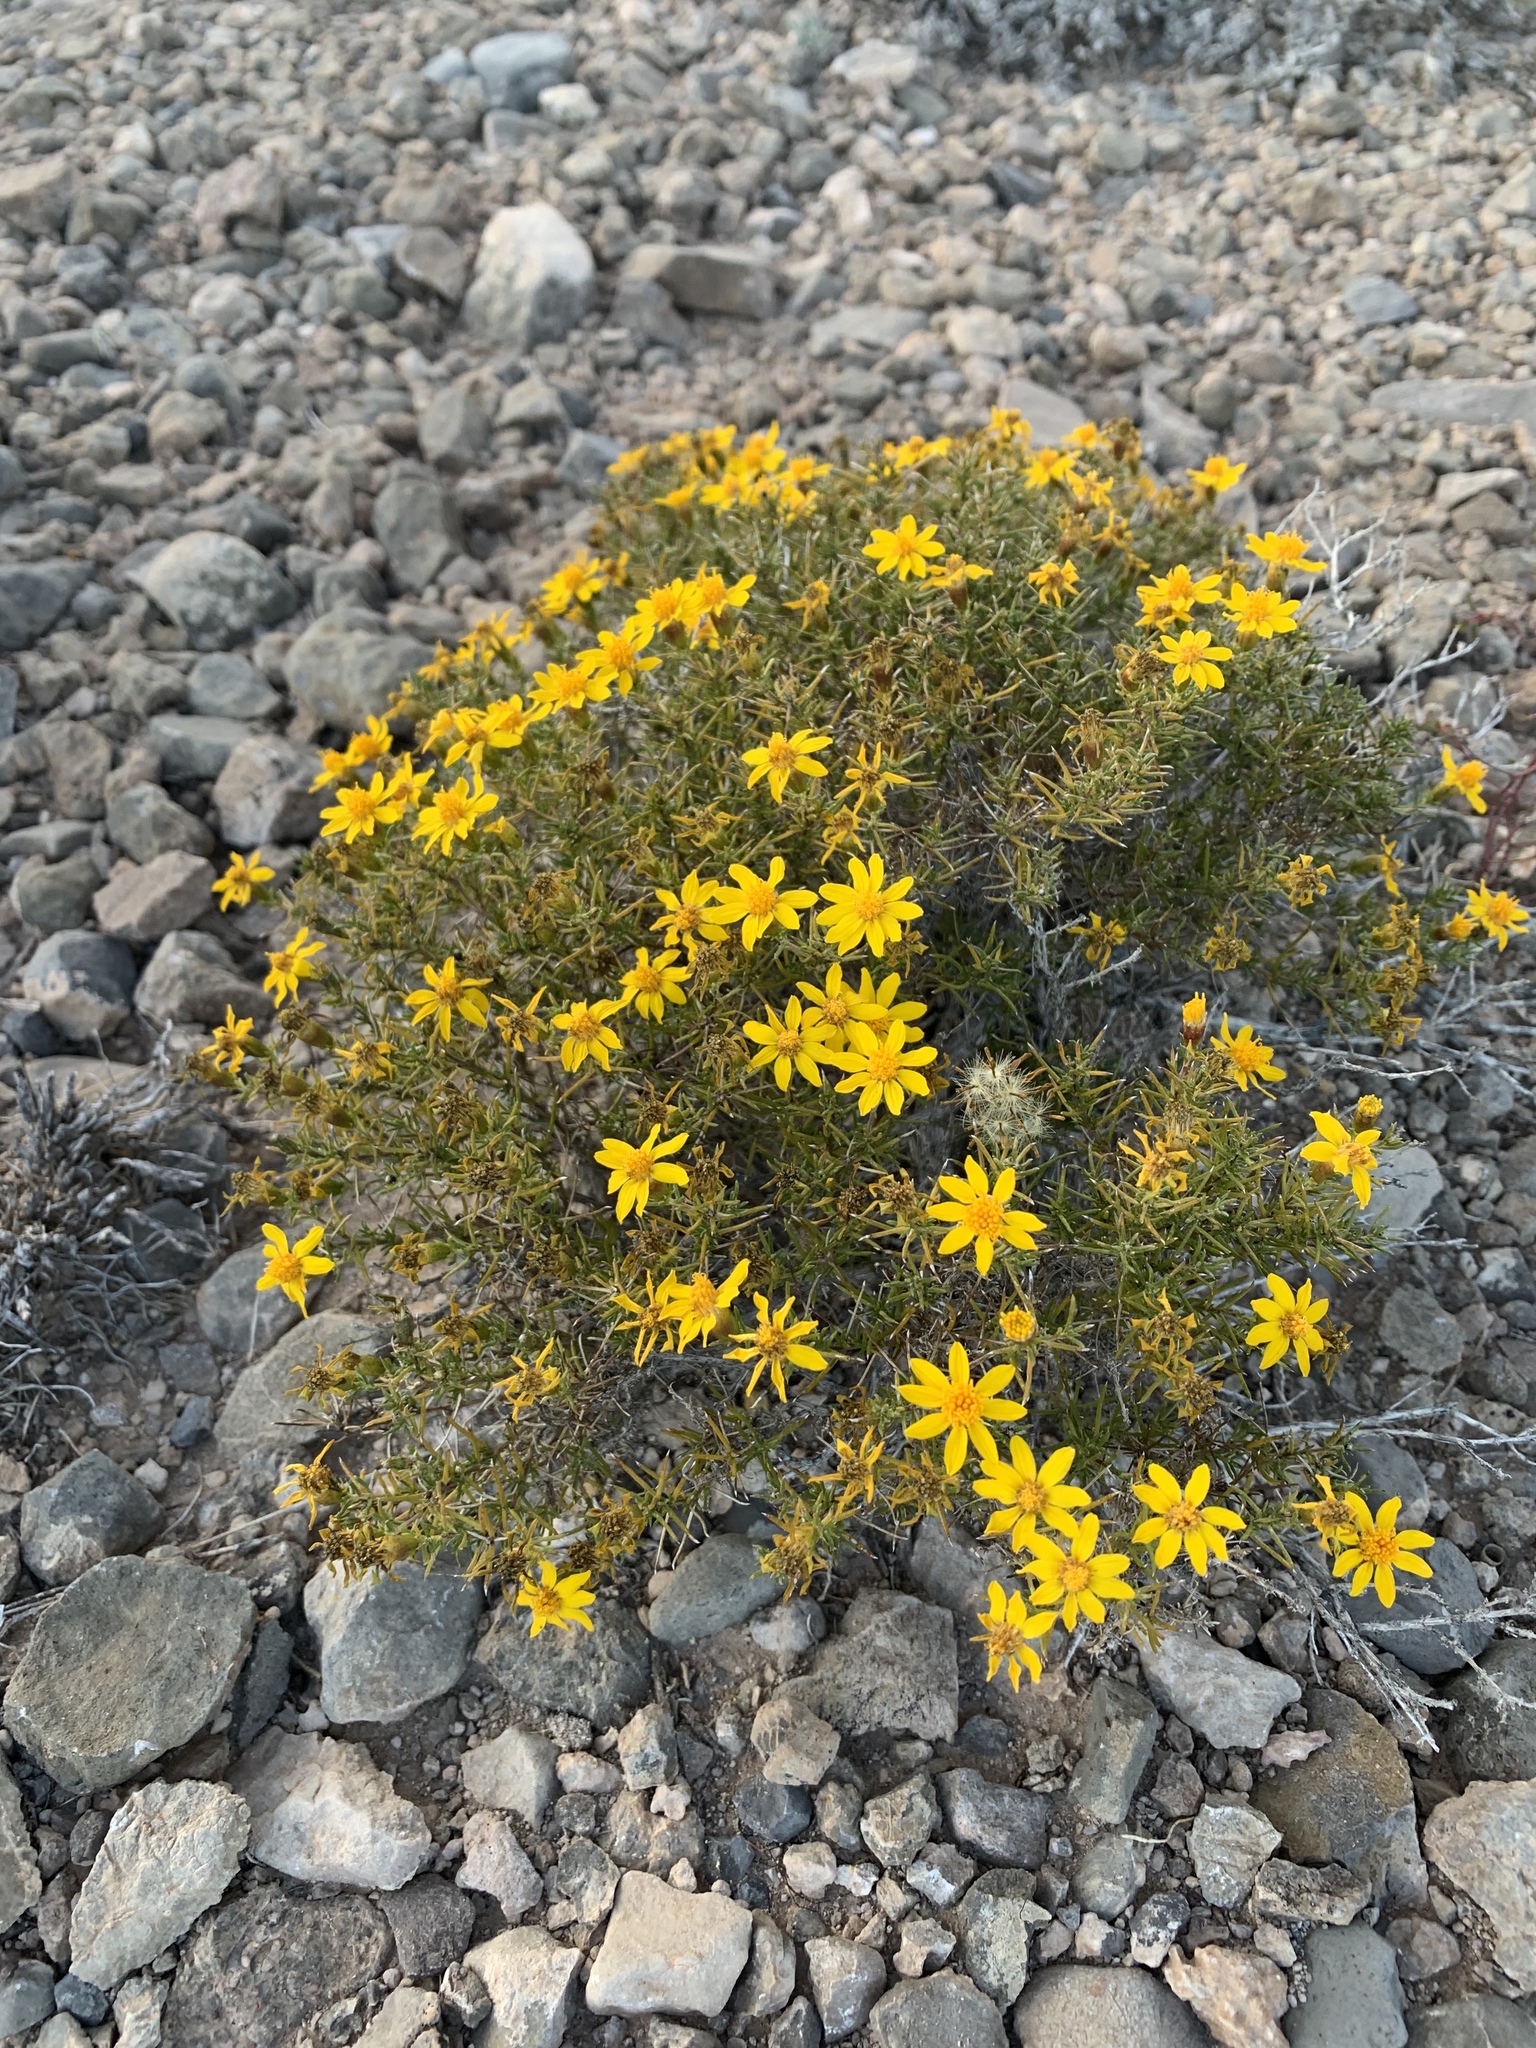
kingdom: Plantae
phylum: Tracheophyta
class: Magnoliopsida
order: Asterales
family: Asteraceae
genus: Thymophylla
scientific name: Thymophylla acerosa
